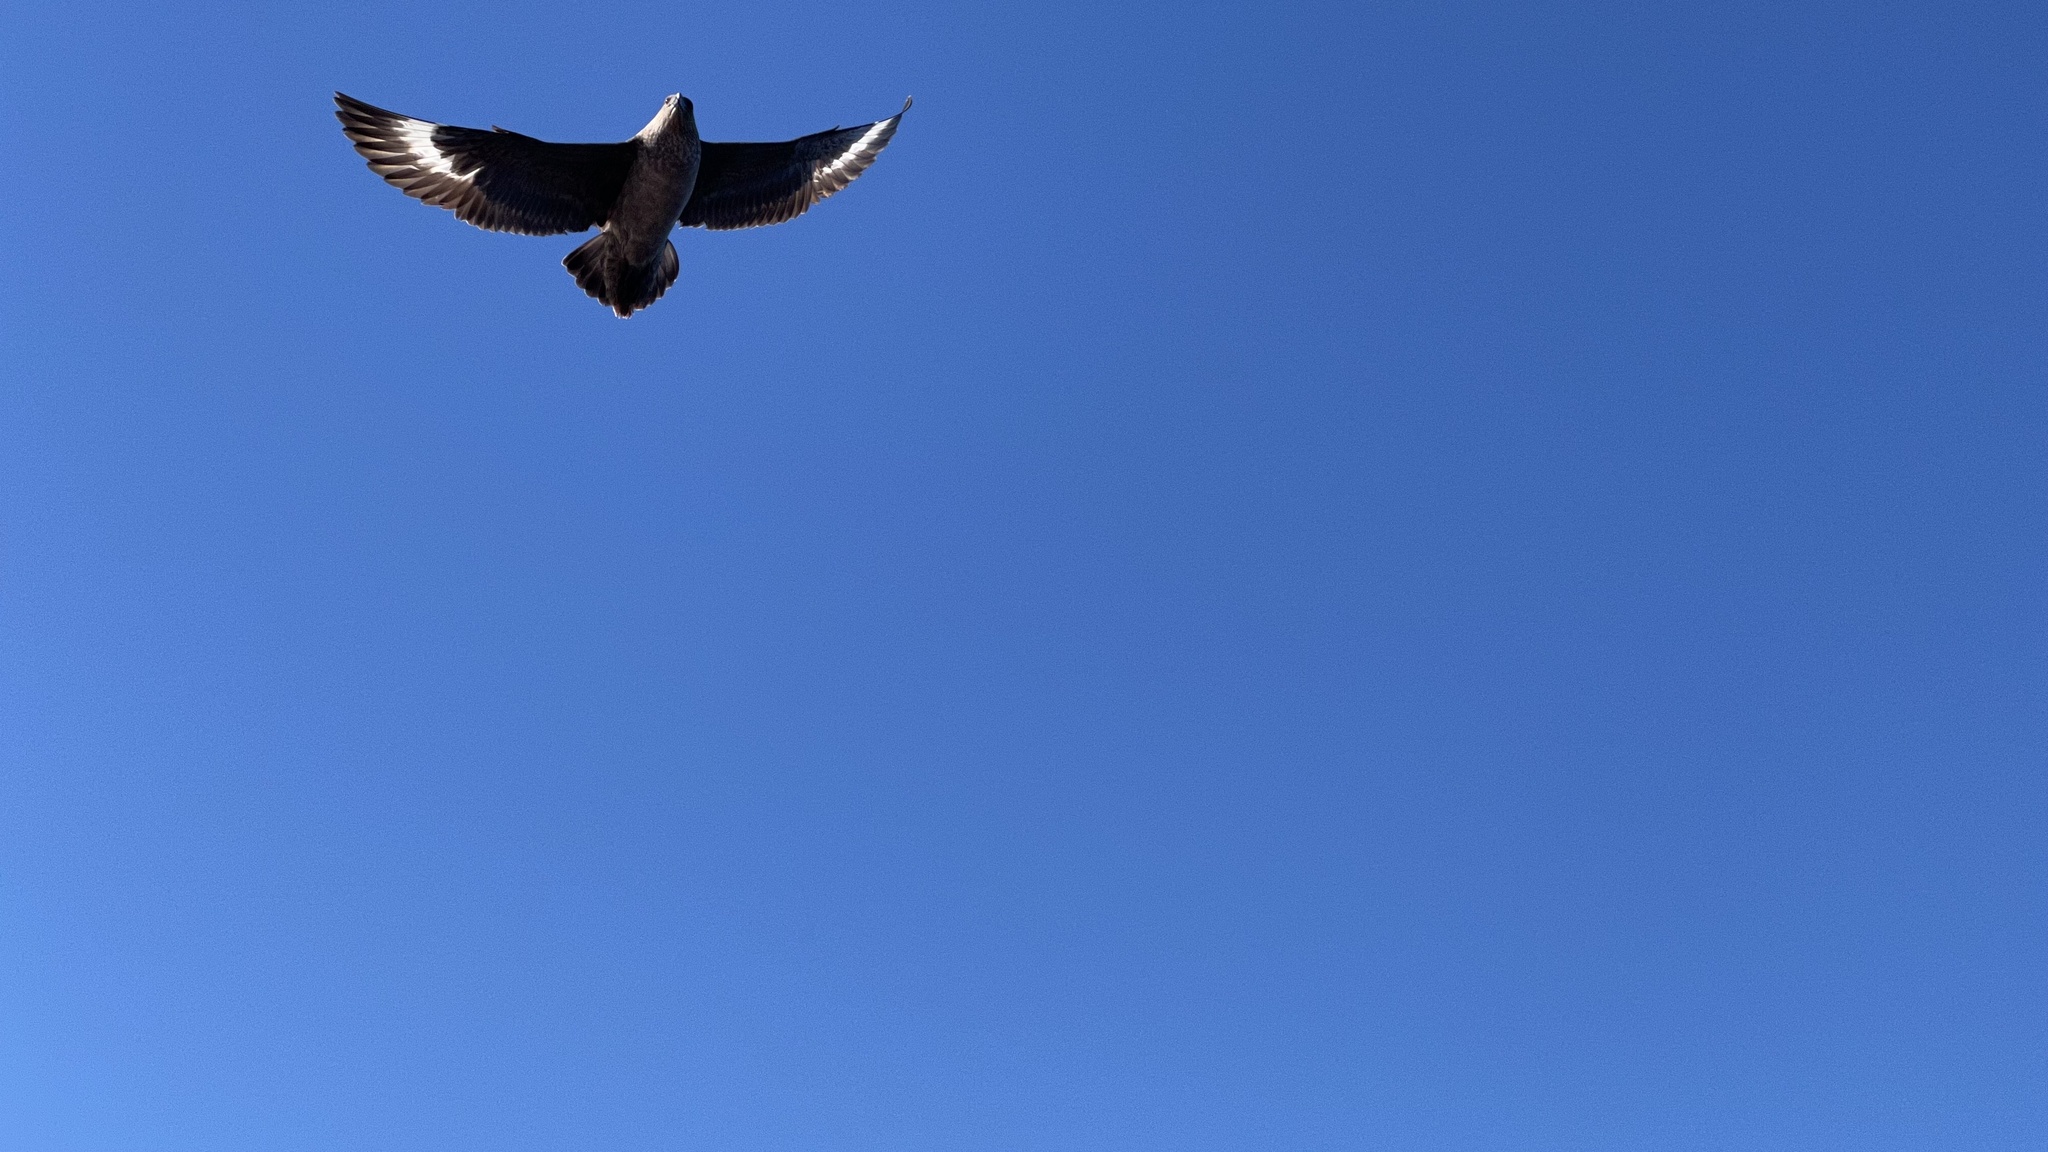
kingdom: Animalia
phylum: Chordata
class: Aves
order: Charadriiformes
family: Stercorariidae
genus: Stercorarius
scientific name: Stercorarius chilensis
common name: Chilean skua
